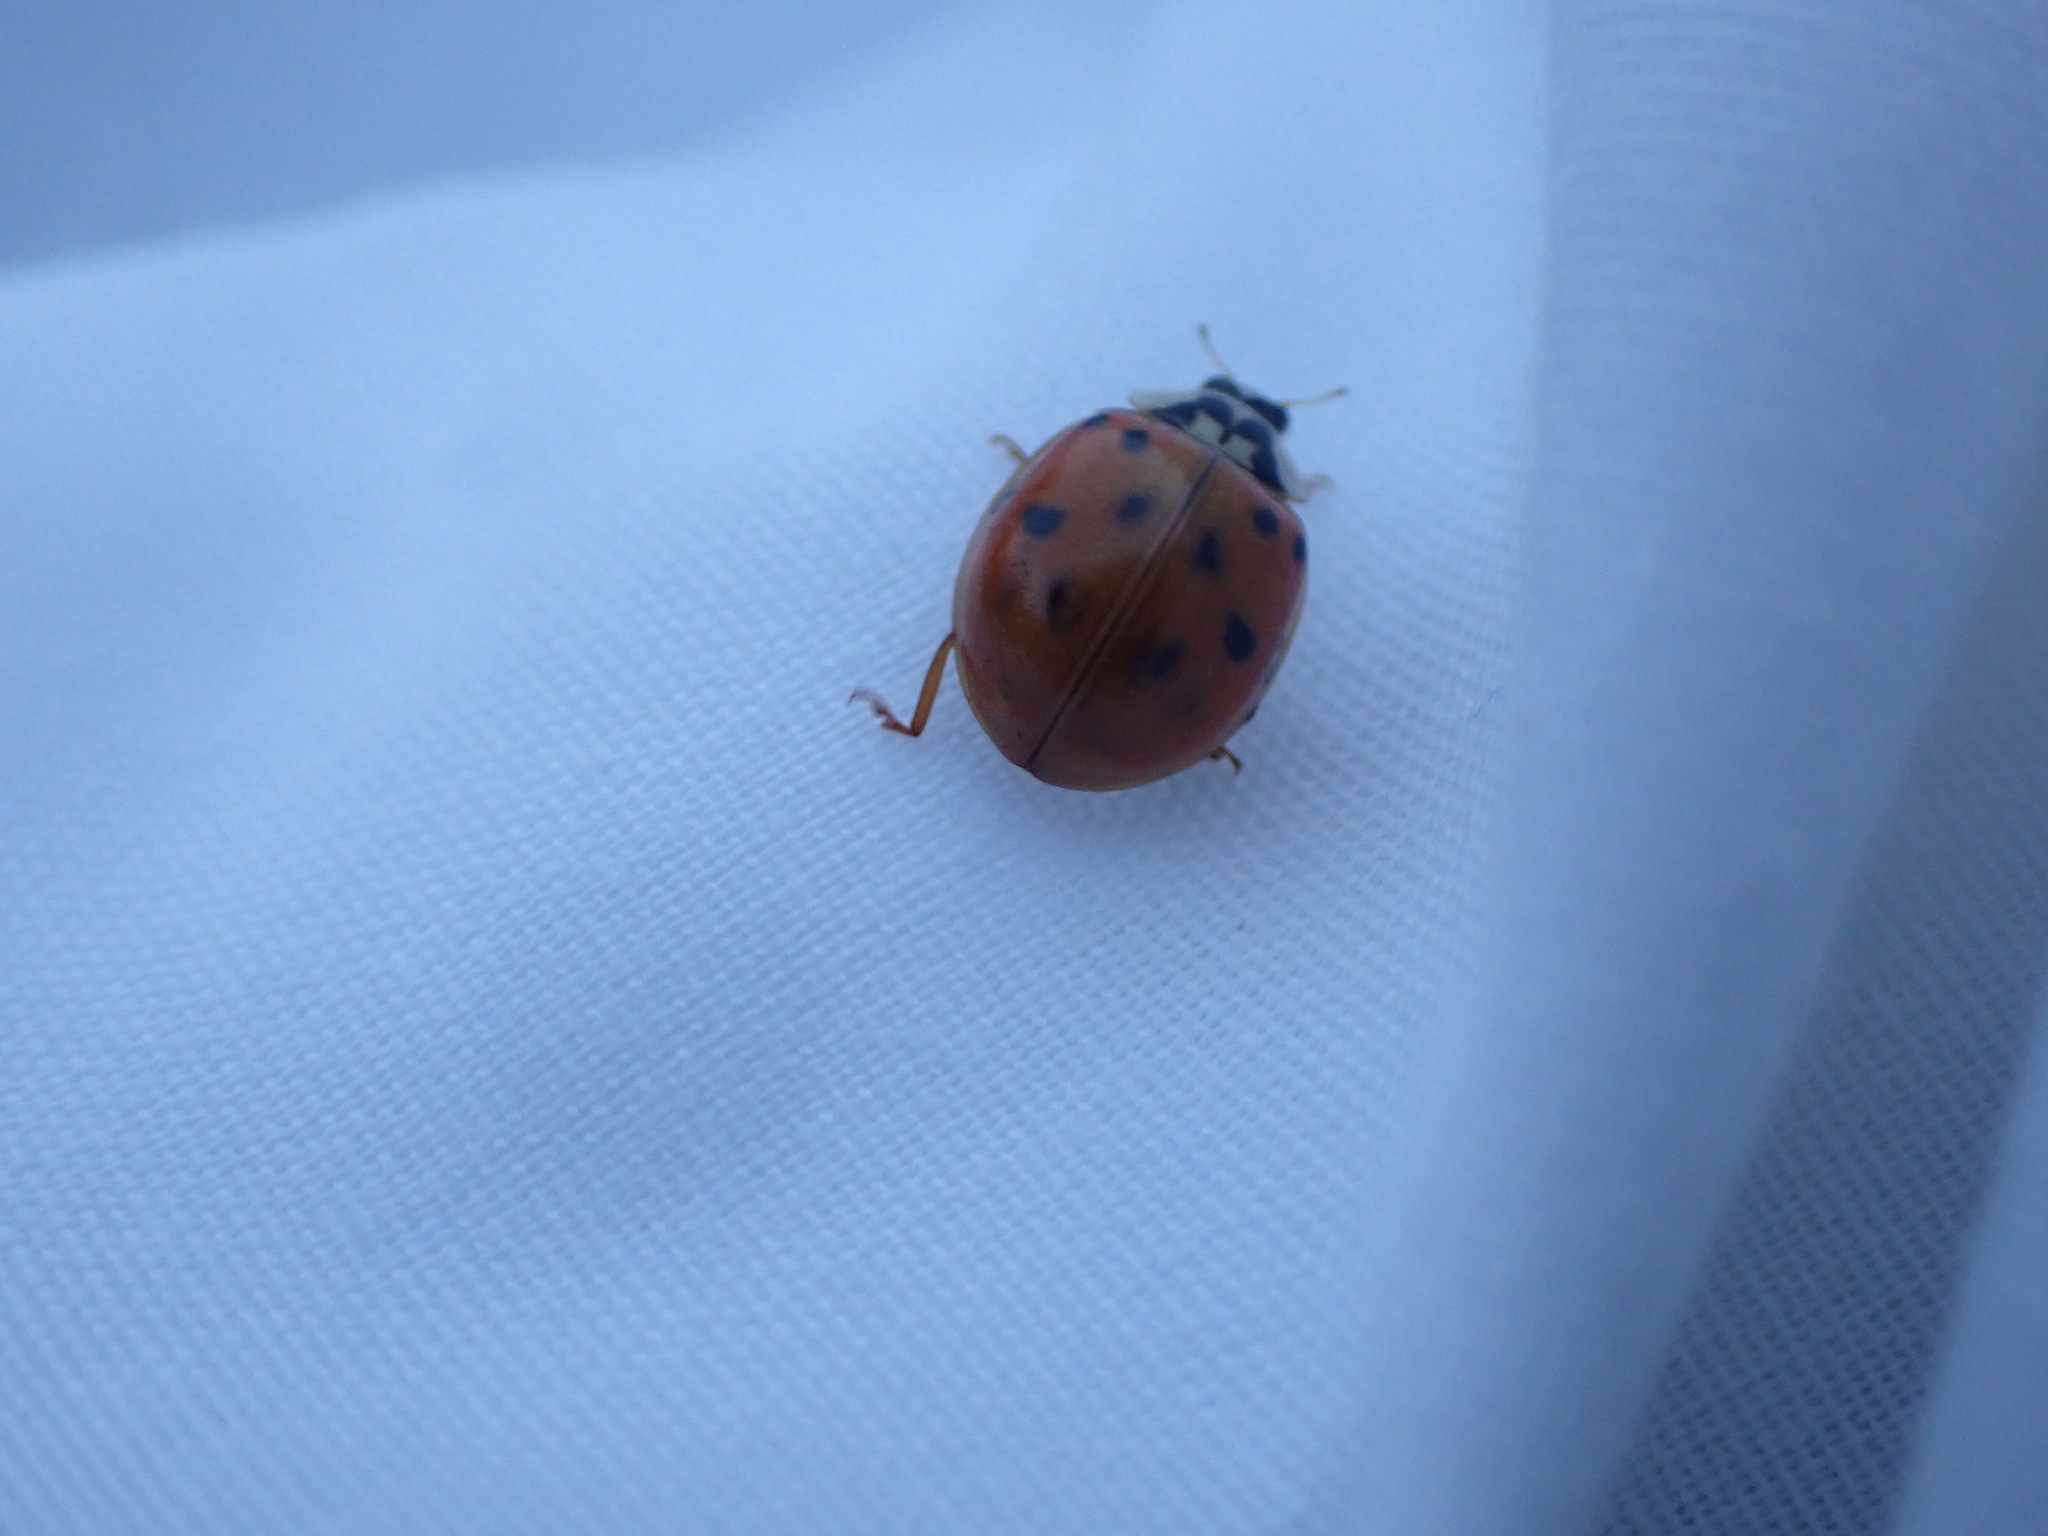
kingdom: Animalia
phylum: Arthropoda
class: Insecta
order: Coleoptera
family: Coccinellidae
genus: Harmonia
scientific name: Harmonia axyridis
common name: Harlequin ladybird
